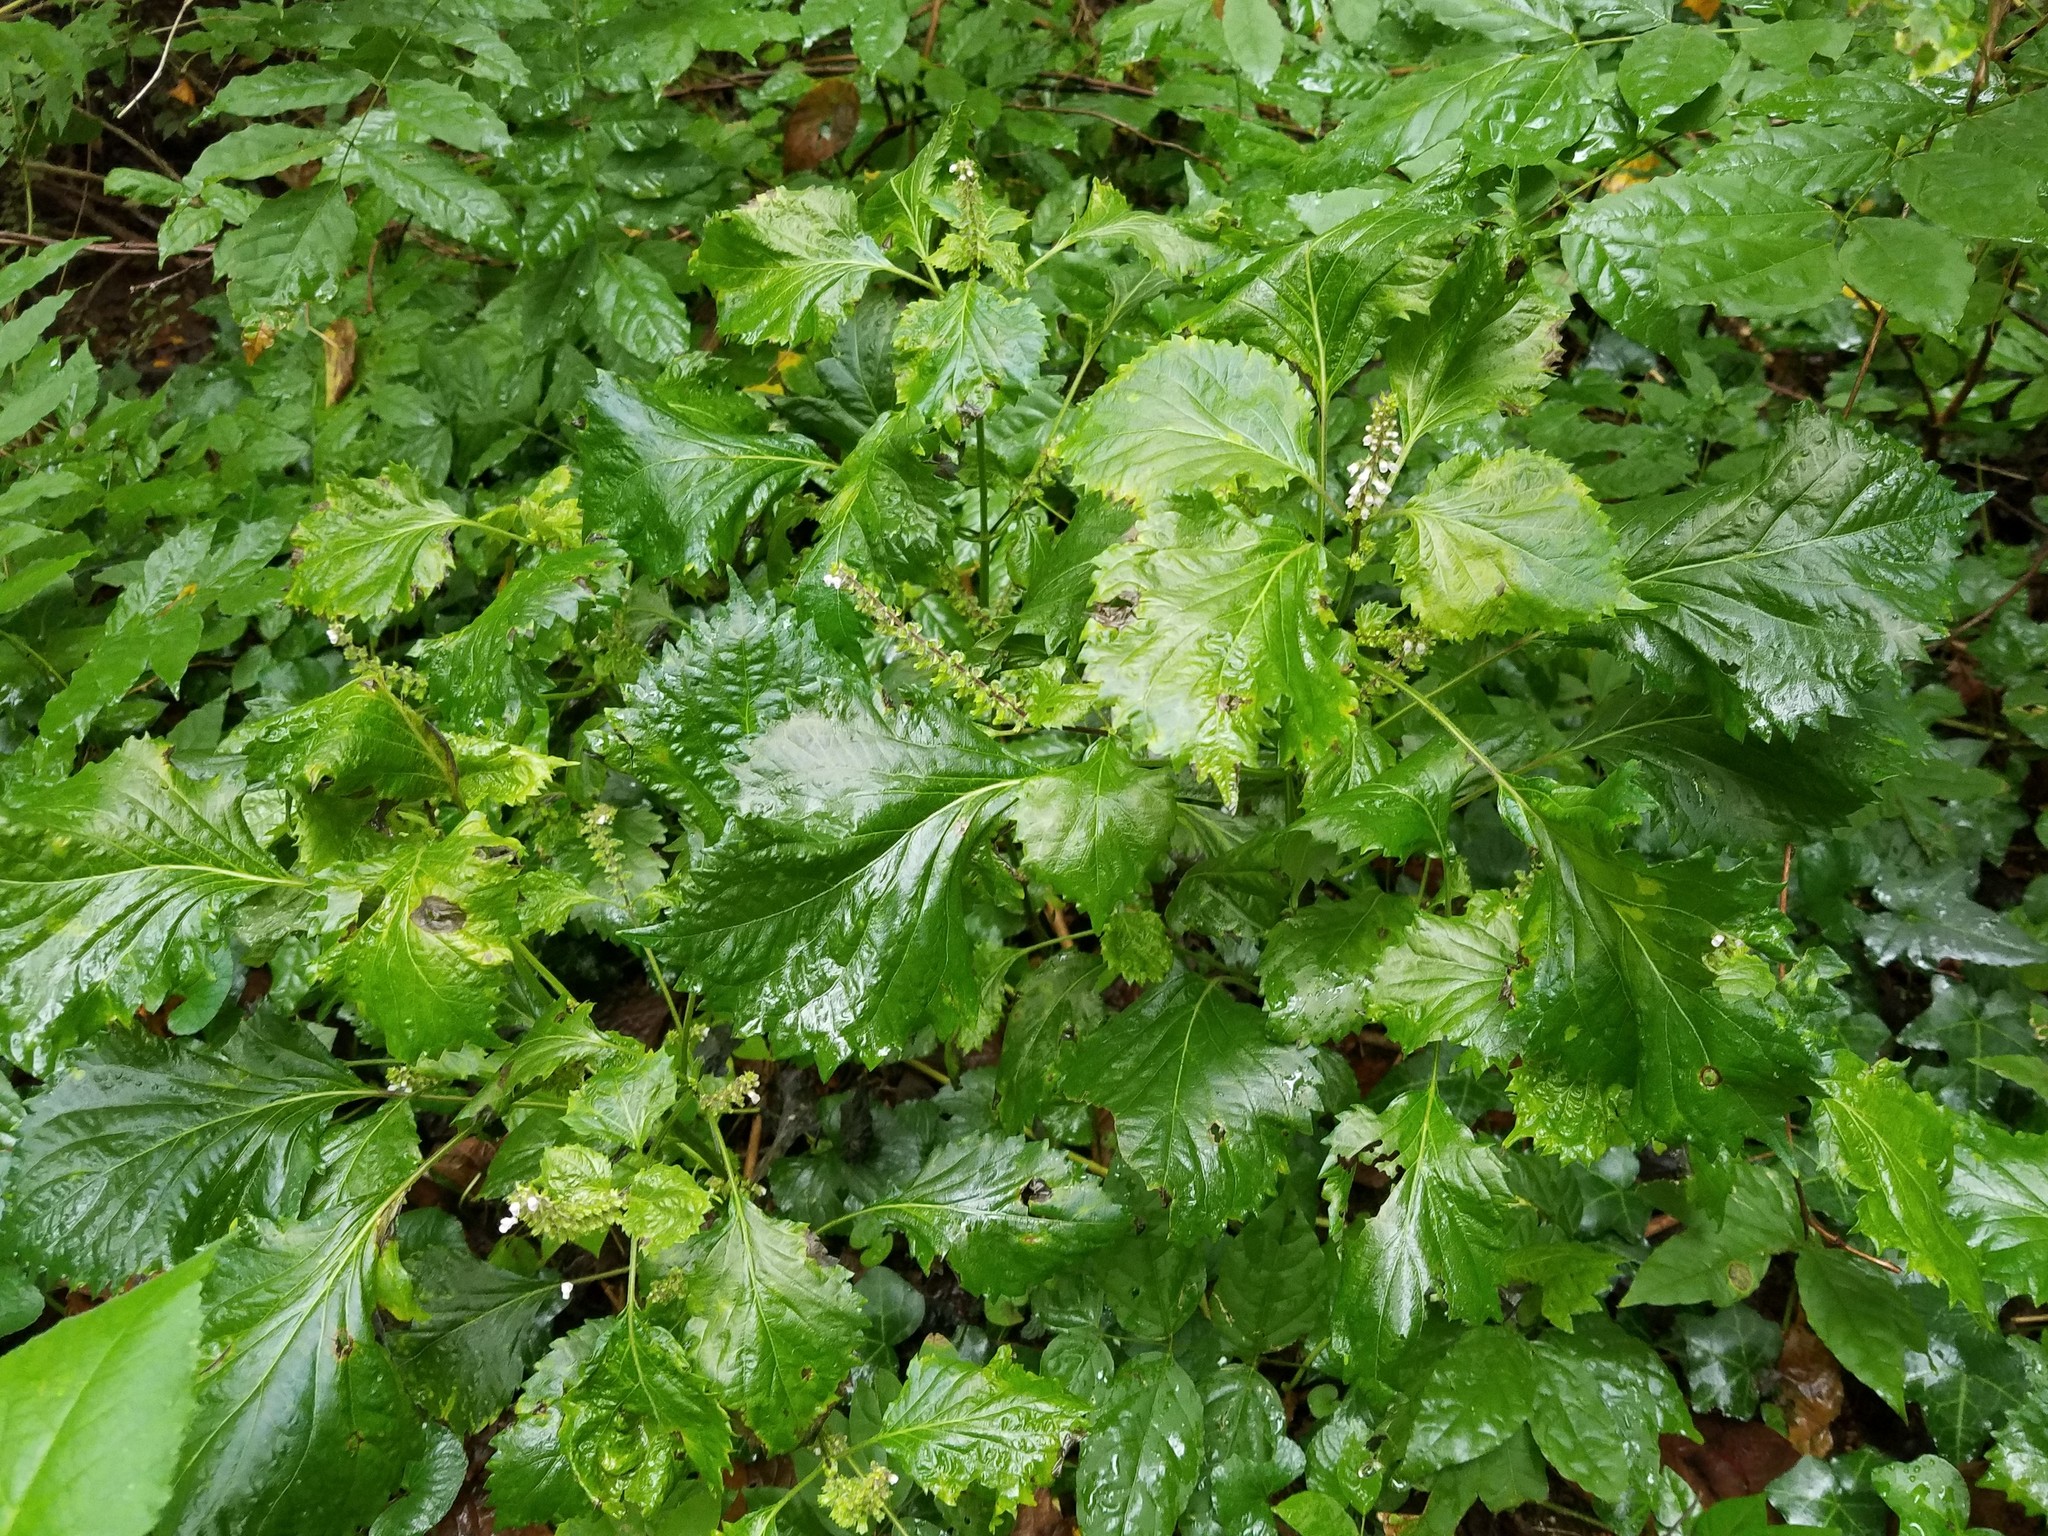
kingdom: Plantae
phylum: Tracheophyta
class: Magnoliopsida
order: Lamiales
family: Lamiaceae
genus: Perilla
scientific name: Perilla frutescens
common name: Perilla
